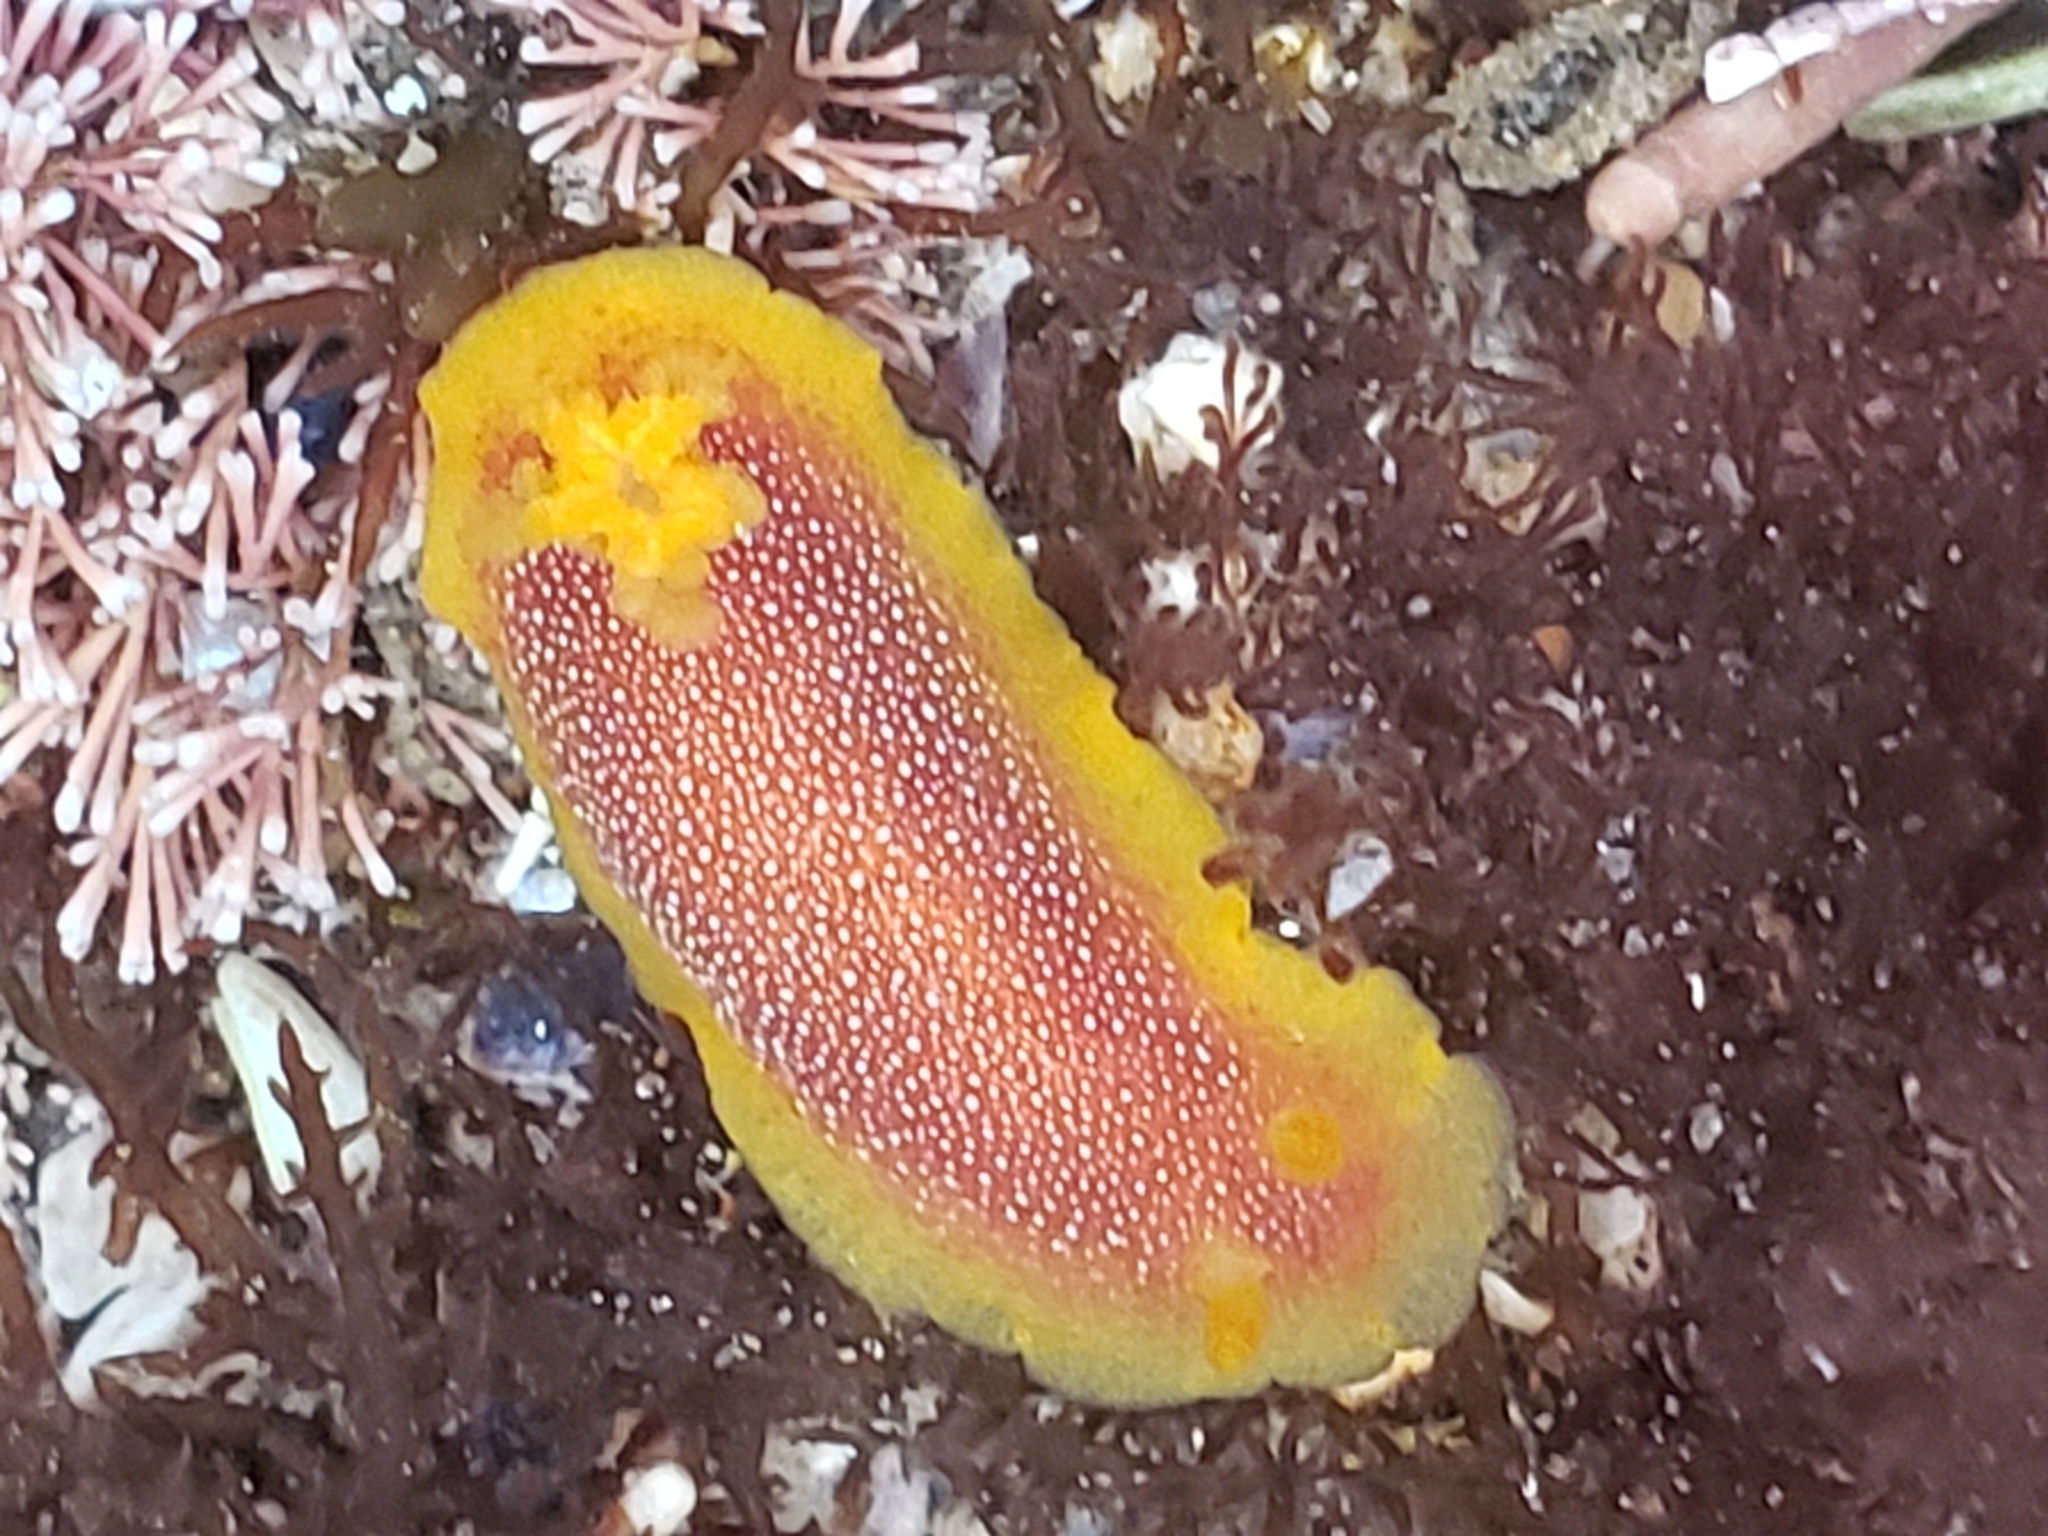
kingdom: Animalia
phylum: Mollusca
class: Gastropoda
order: Nudibranchia
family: Dendrodorididae
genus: Doriopsilla
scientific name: Doriopsilla gemela
